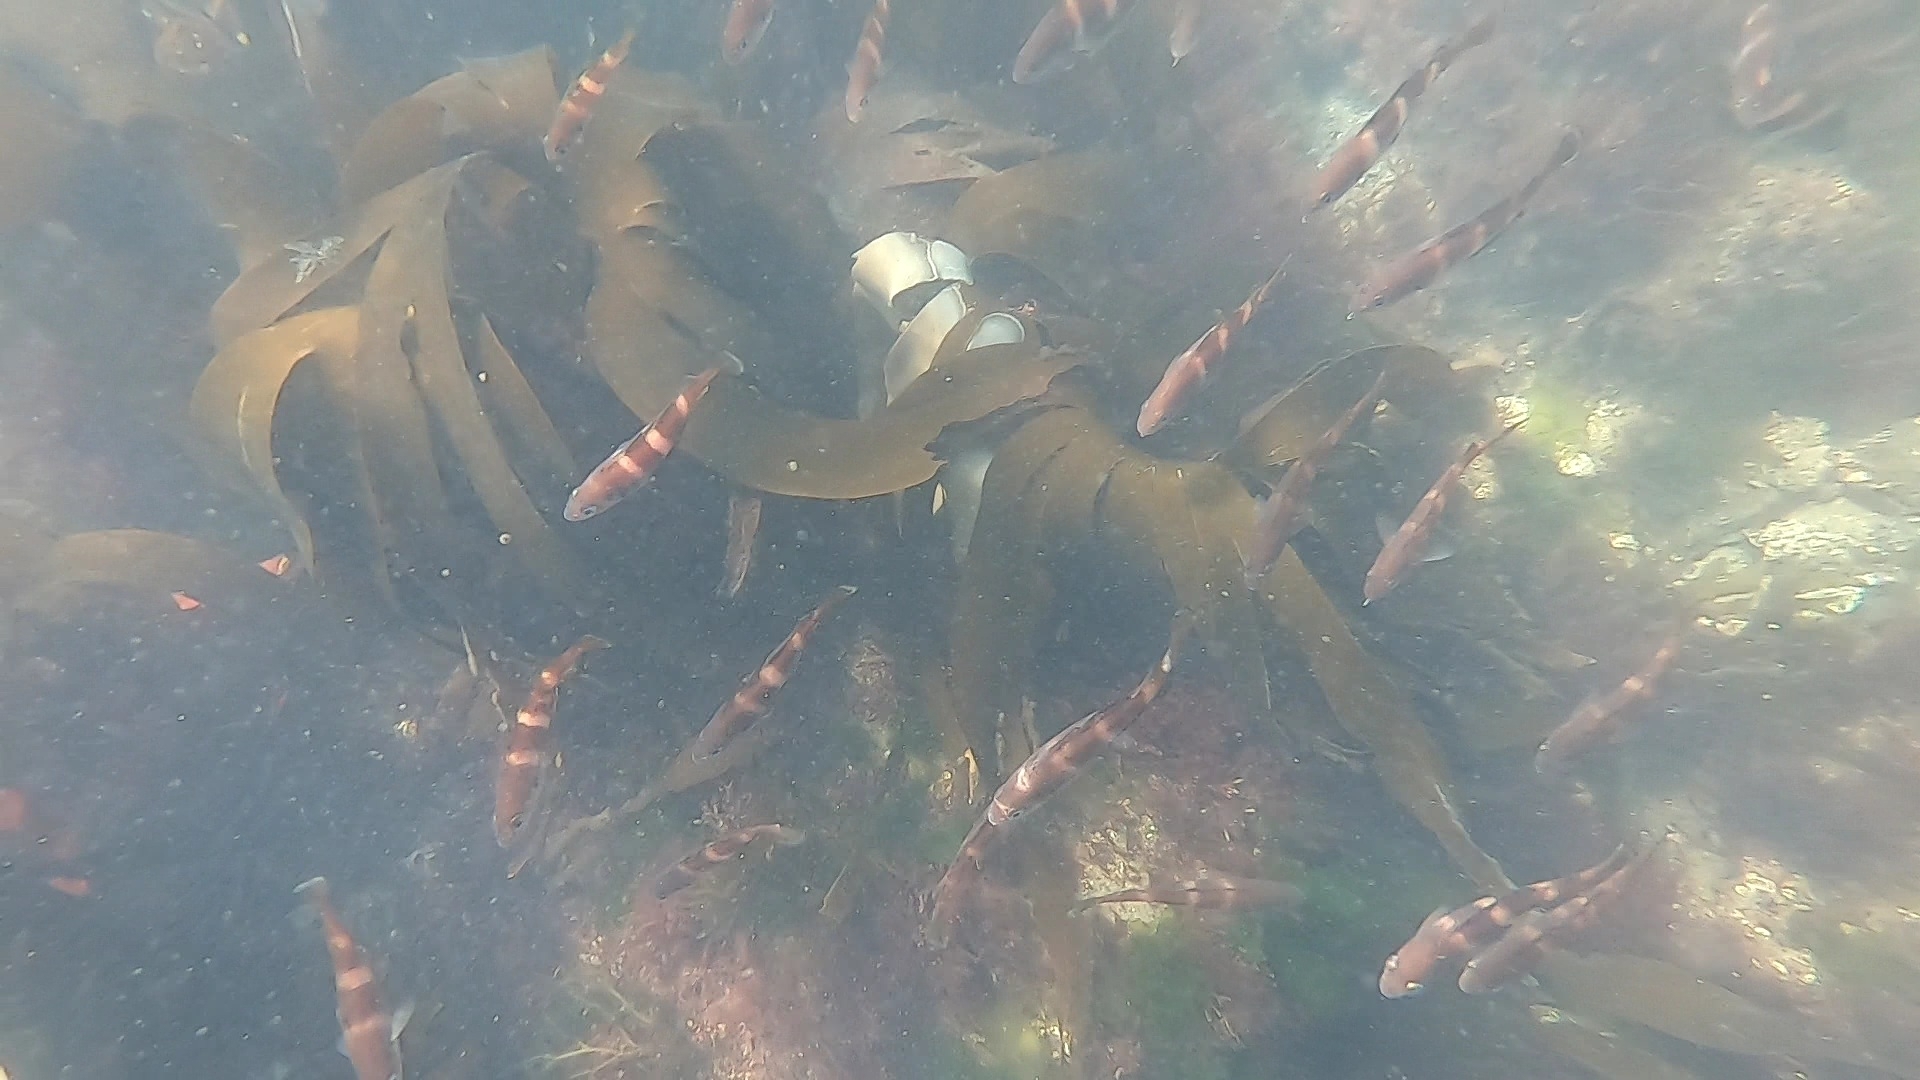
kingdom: Animalia
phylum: Chordata
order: Gadiformes
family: Gadidae
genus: Trisopterus
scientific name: Trisopterus luscus
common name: Bib
